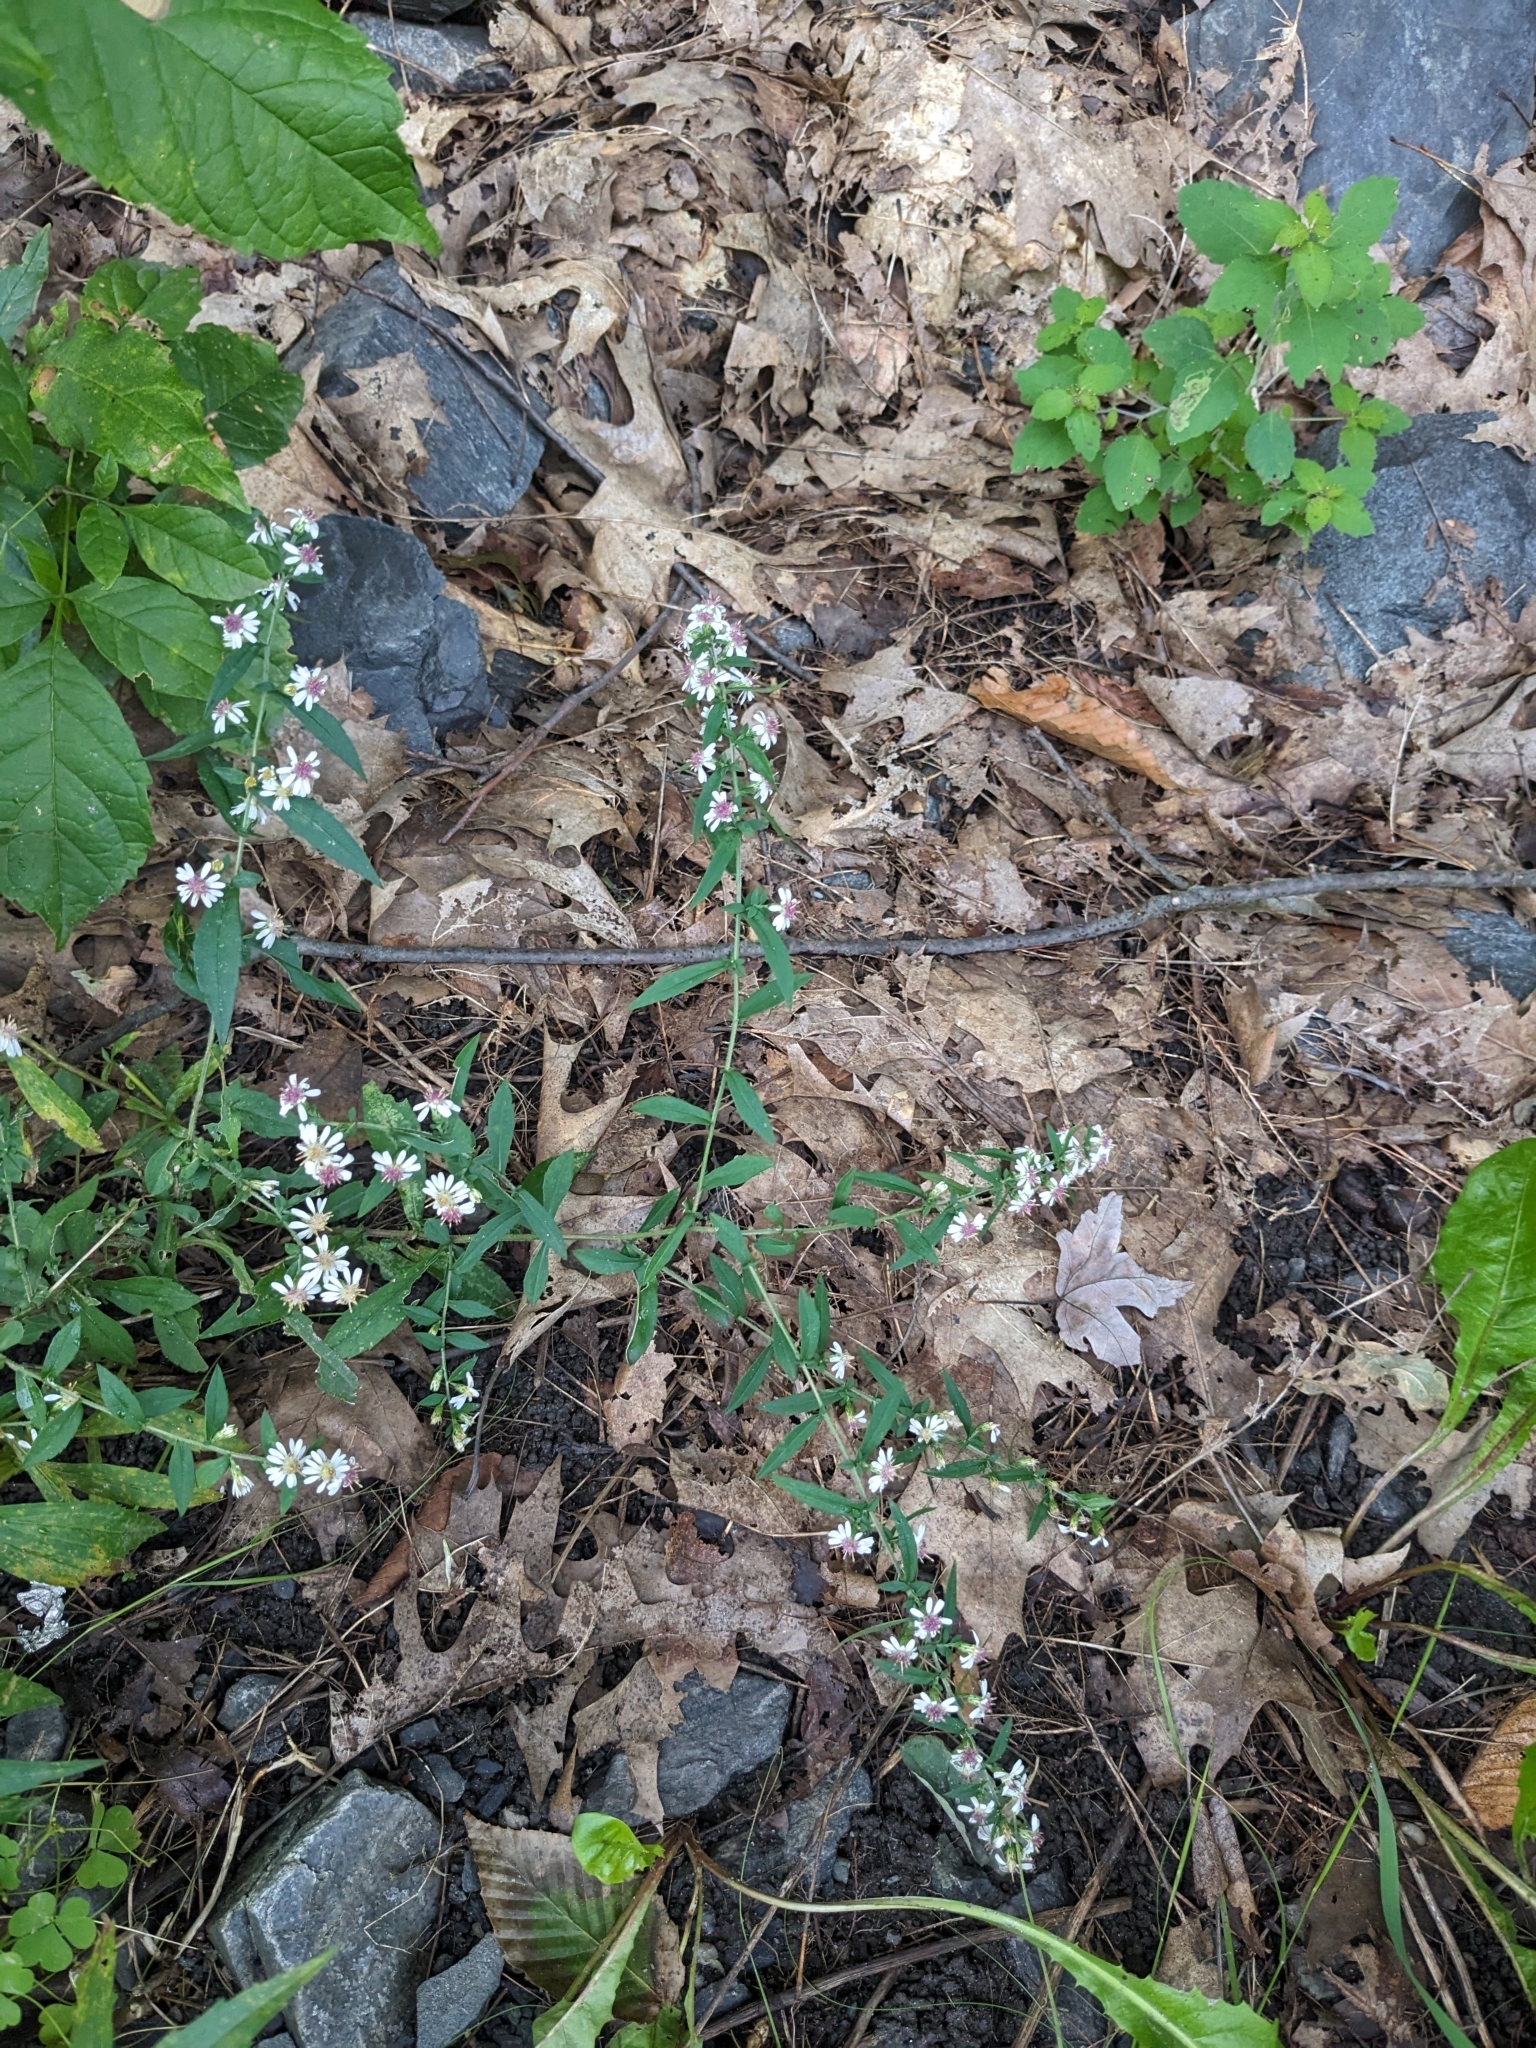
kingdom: Plantae
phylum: Tracheophyta
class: Magnoliopsida
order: Asterales
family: Asteraceae
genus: Symphyotrichum
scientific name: Symphyotrichum lateriflorum
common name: Calico aster
